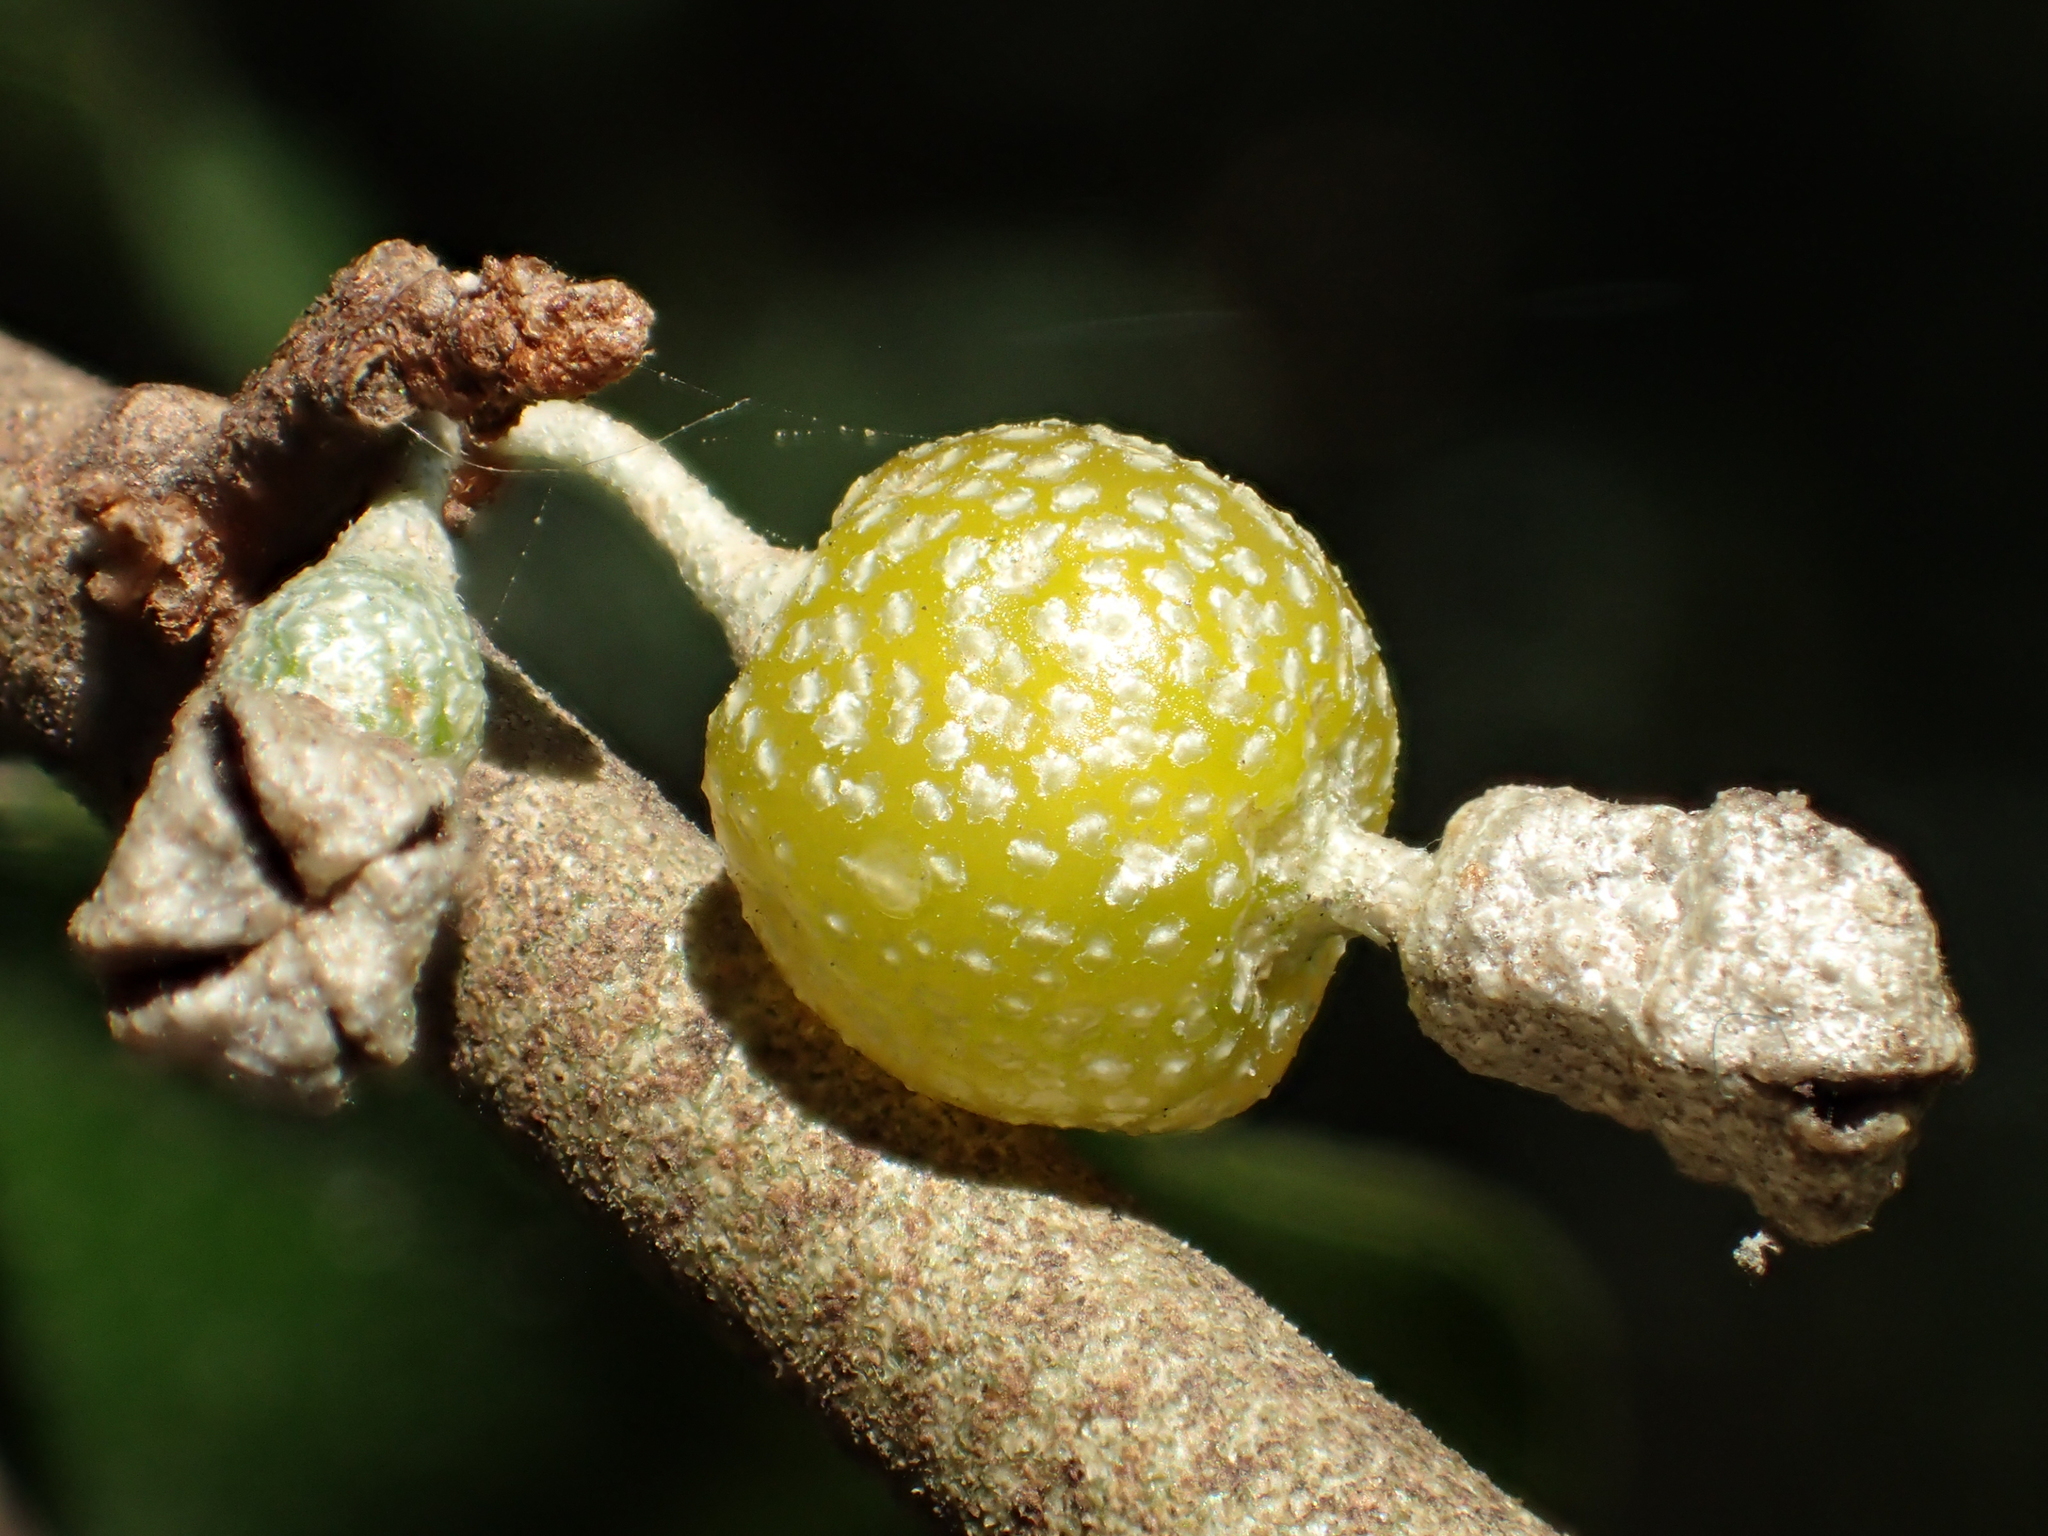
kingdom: Plantae
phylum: Tracheophyta
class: Magnoliopsida
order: Rosales
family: Elaeagnaceae
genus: Elaeagnus
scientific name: Elaeagnus oldhamii
